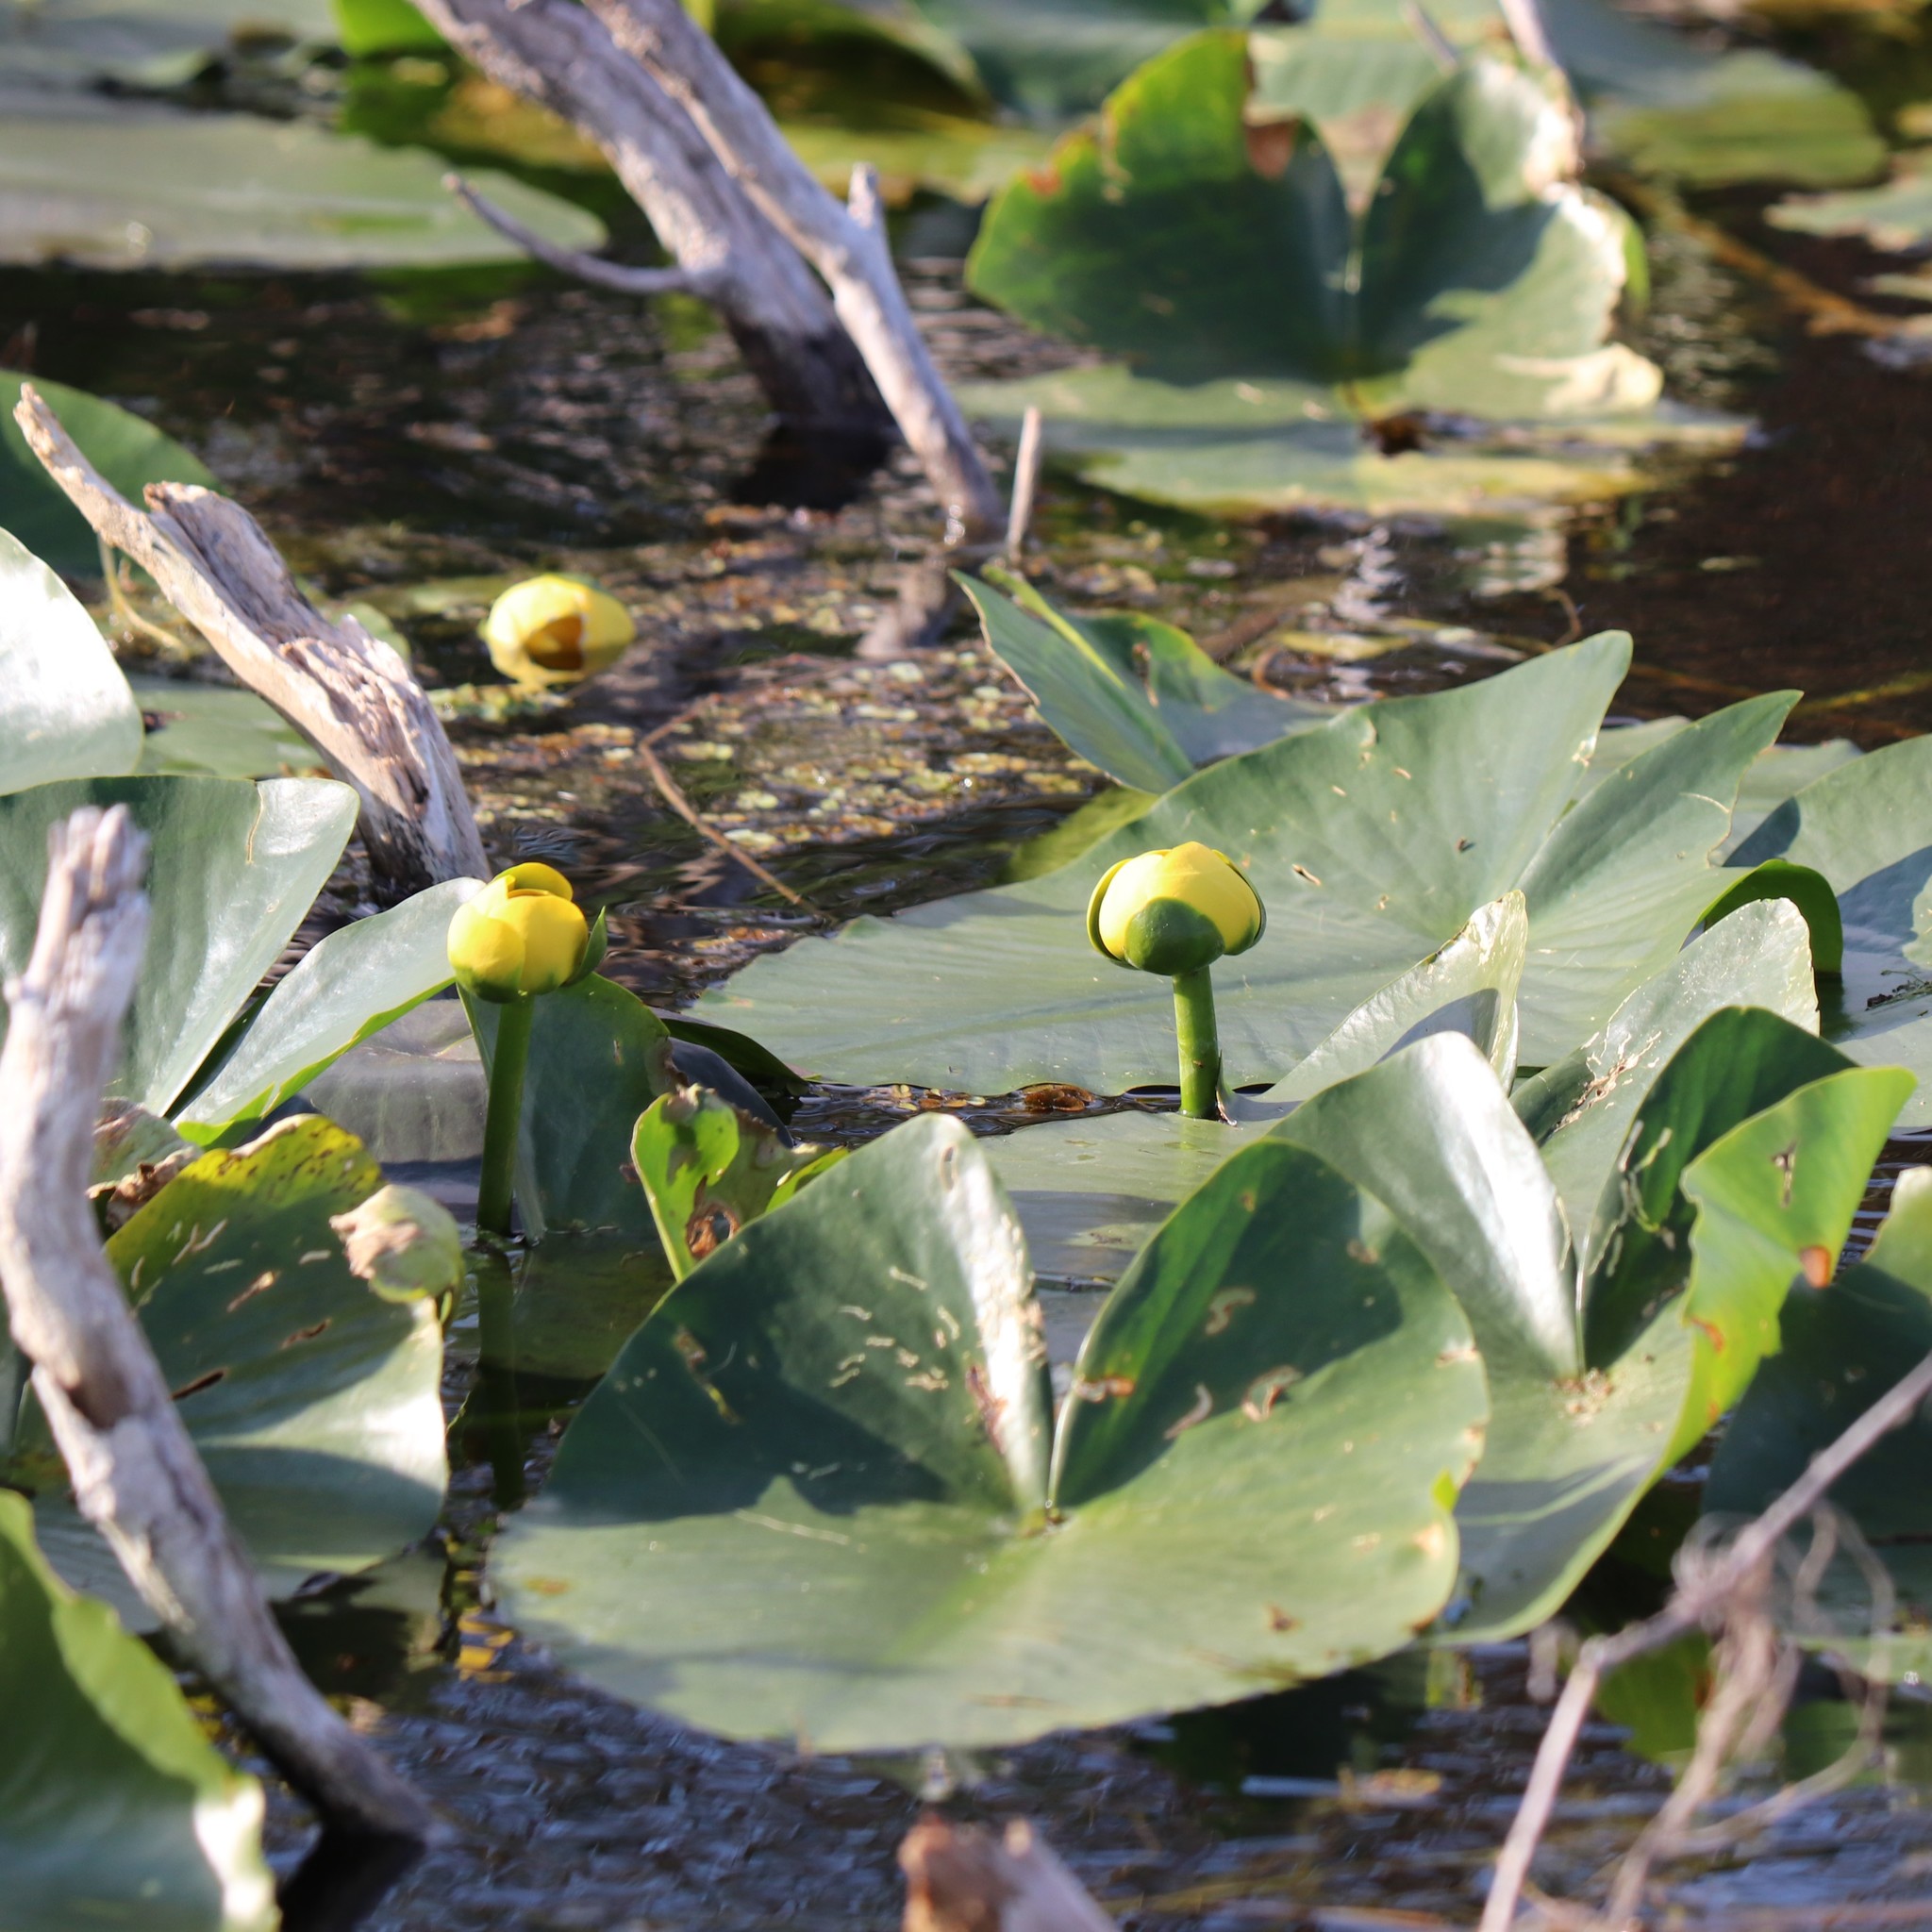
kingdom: Plantae
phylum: Tracheophyta
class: Magnoliopsida
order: Nymphaeales
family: Nymphaeaceae
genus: Nuphar
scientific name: Nuphar advena
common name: Spatter-dock
